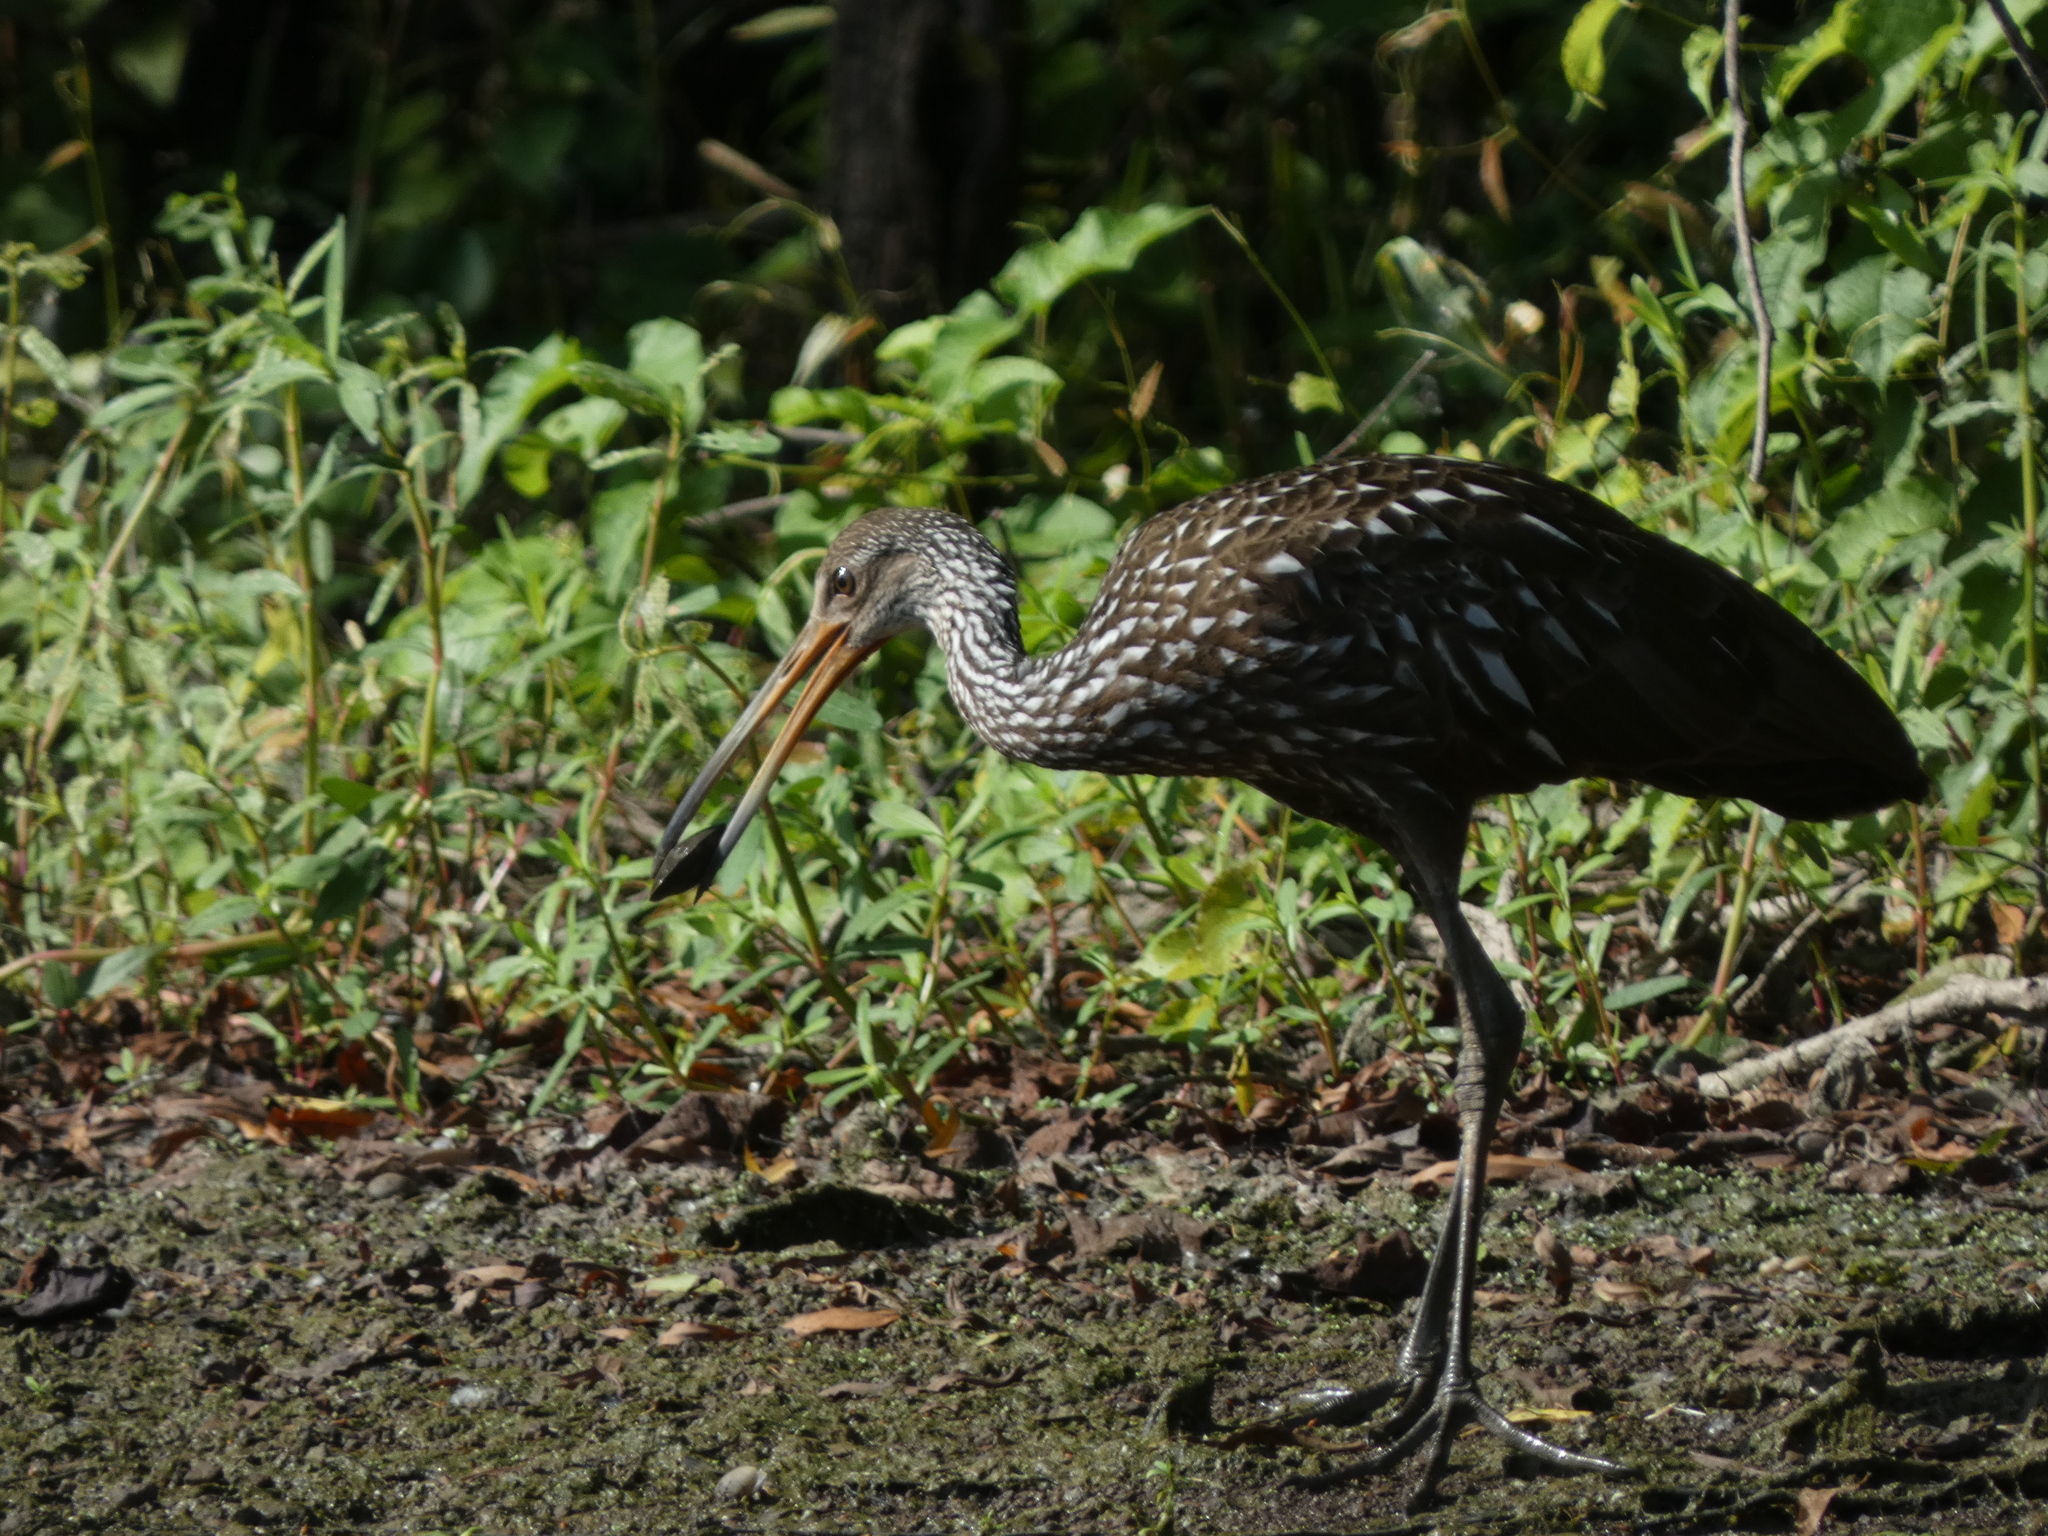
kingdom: Animalia
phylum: Chordata
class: Aves
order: Gruiformes
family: Aramidae
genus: Aramus
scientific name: Aramus guarauna
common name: Limpkin
